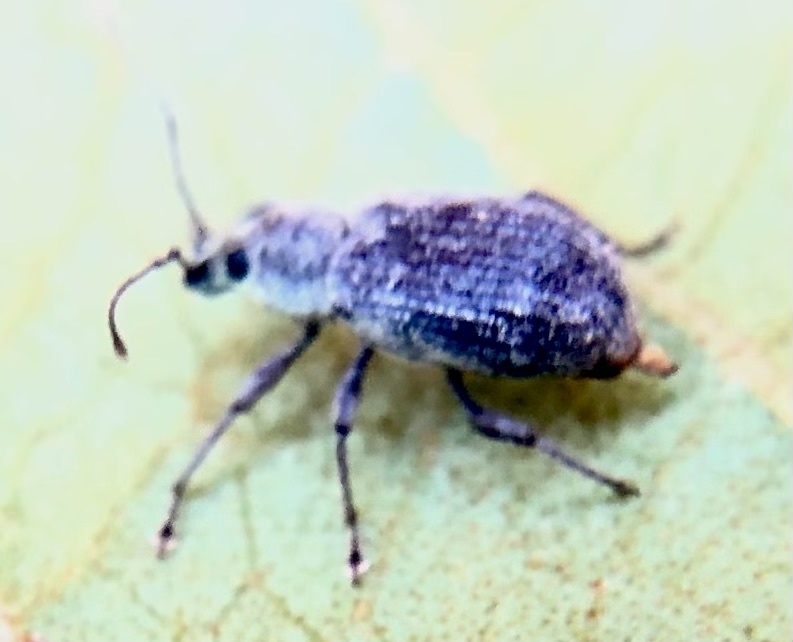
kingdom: Animalia
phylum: Arthropoda
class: Insecta
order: Coleoptera
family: Curculionidae
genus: Cyrtepistomus
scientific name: Cyrtepistomus castaneus
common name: Weevil
